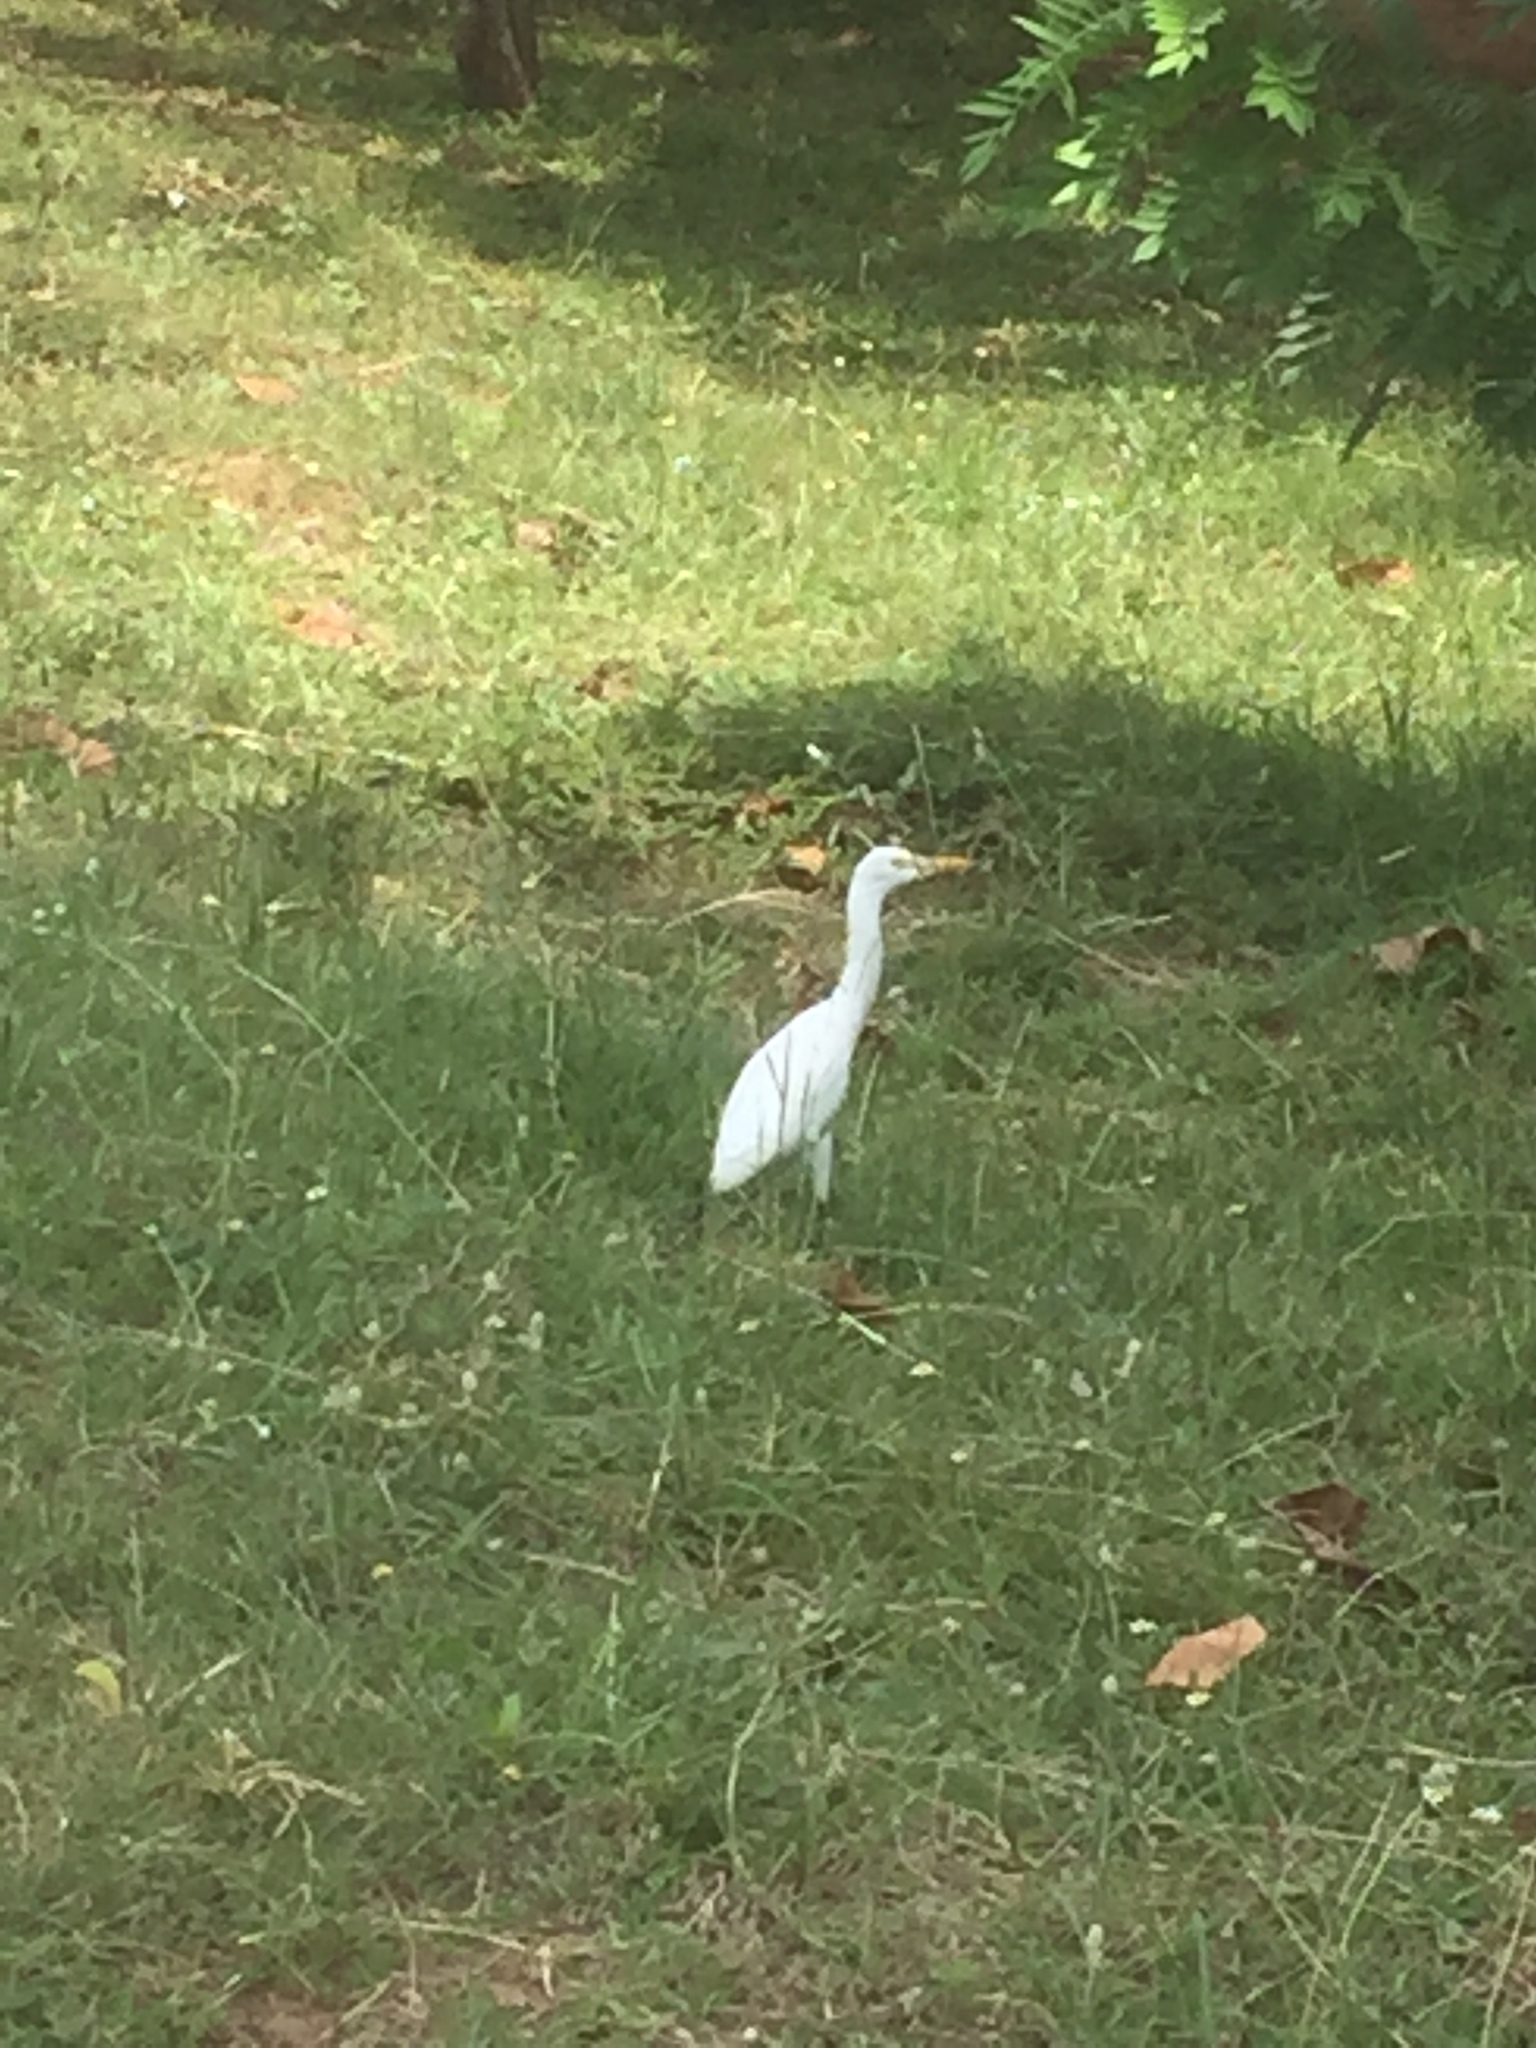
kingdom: Animalia
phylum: Chordata
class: Aves
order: Pelecaniformes
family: Ardeidae
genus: Bubulcus
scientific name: Bubulcus coromandus
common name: Eastern cattle egret
